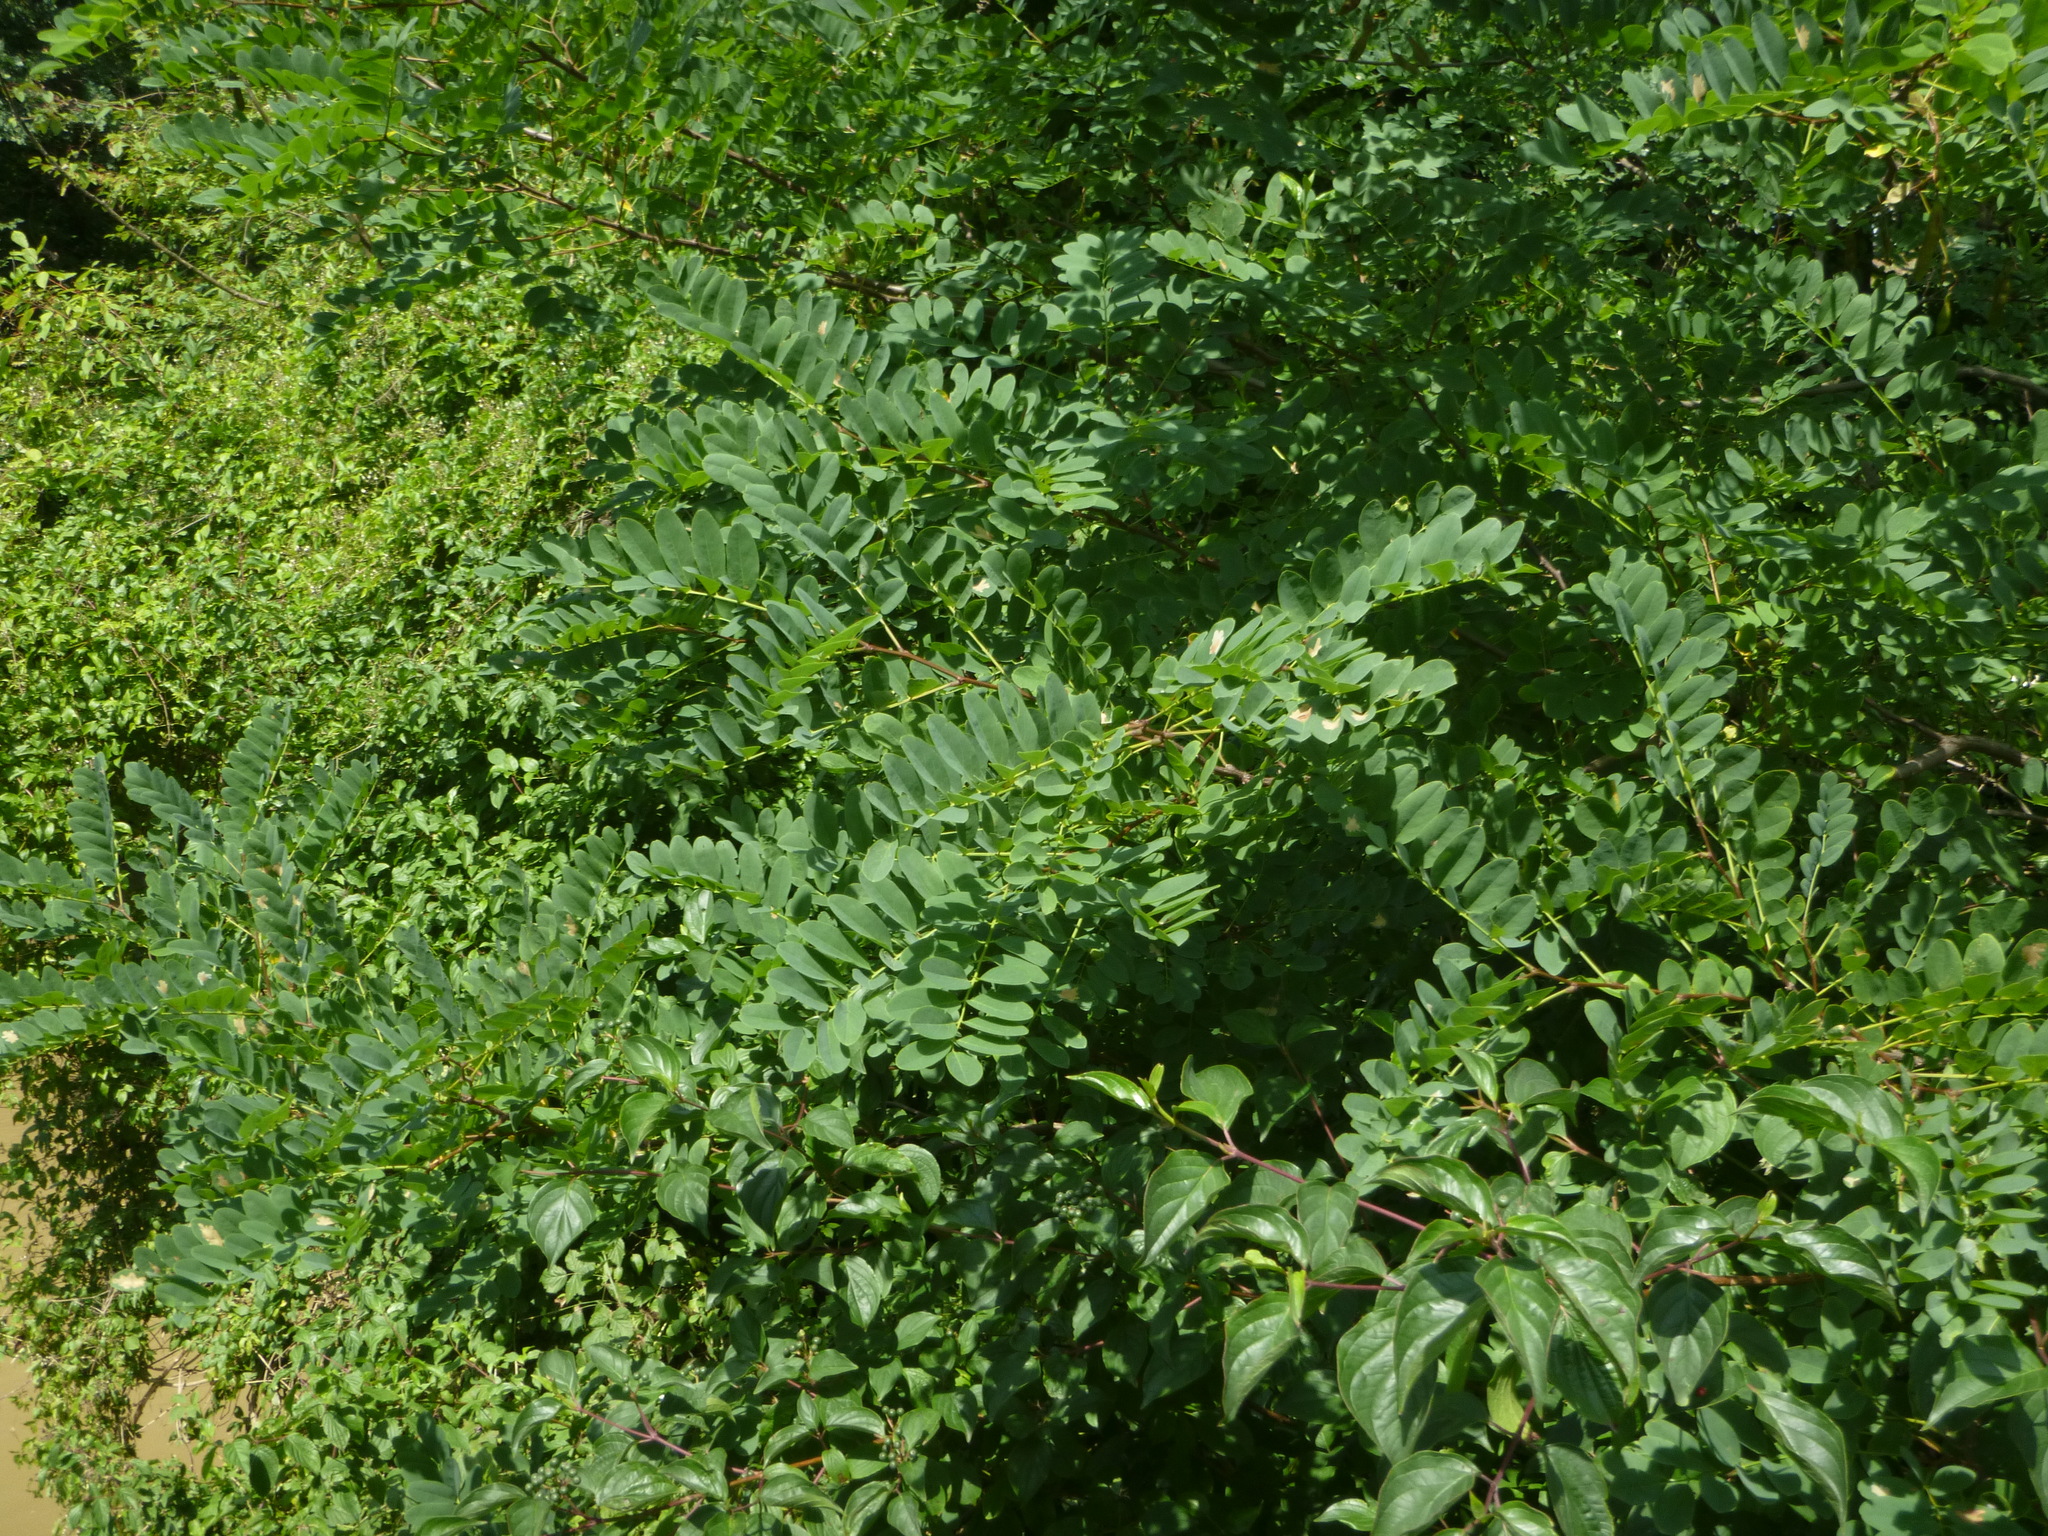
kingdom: Plantae
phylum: Tracheophyta
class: Magnoliopsida
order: Fabales
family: Fabaceae
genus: Robinia
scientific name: Robinia pseudoacacia
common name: Black locust
